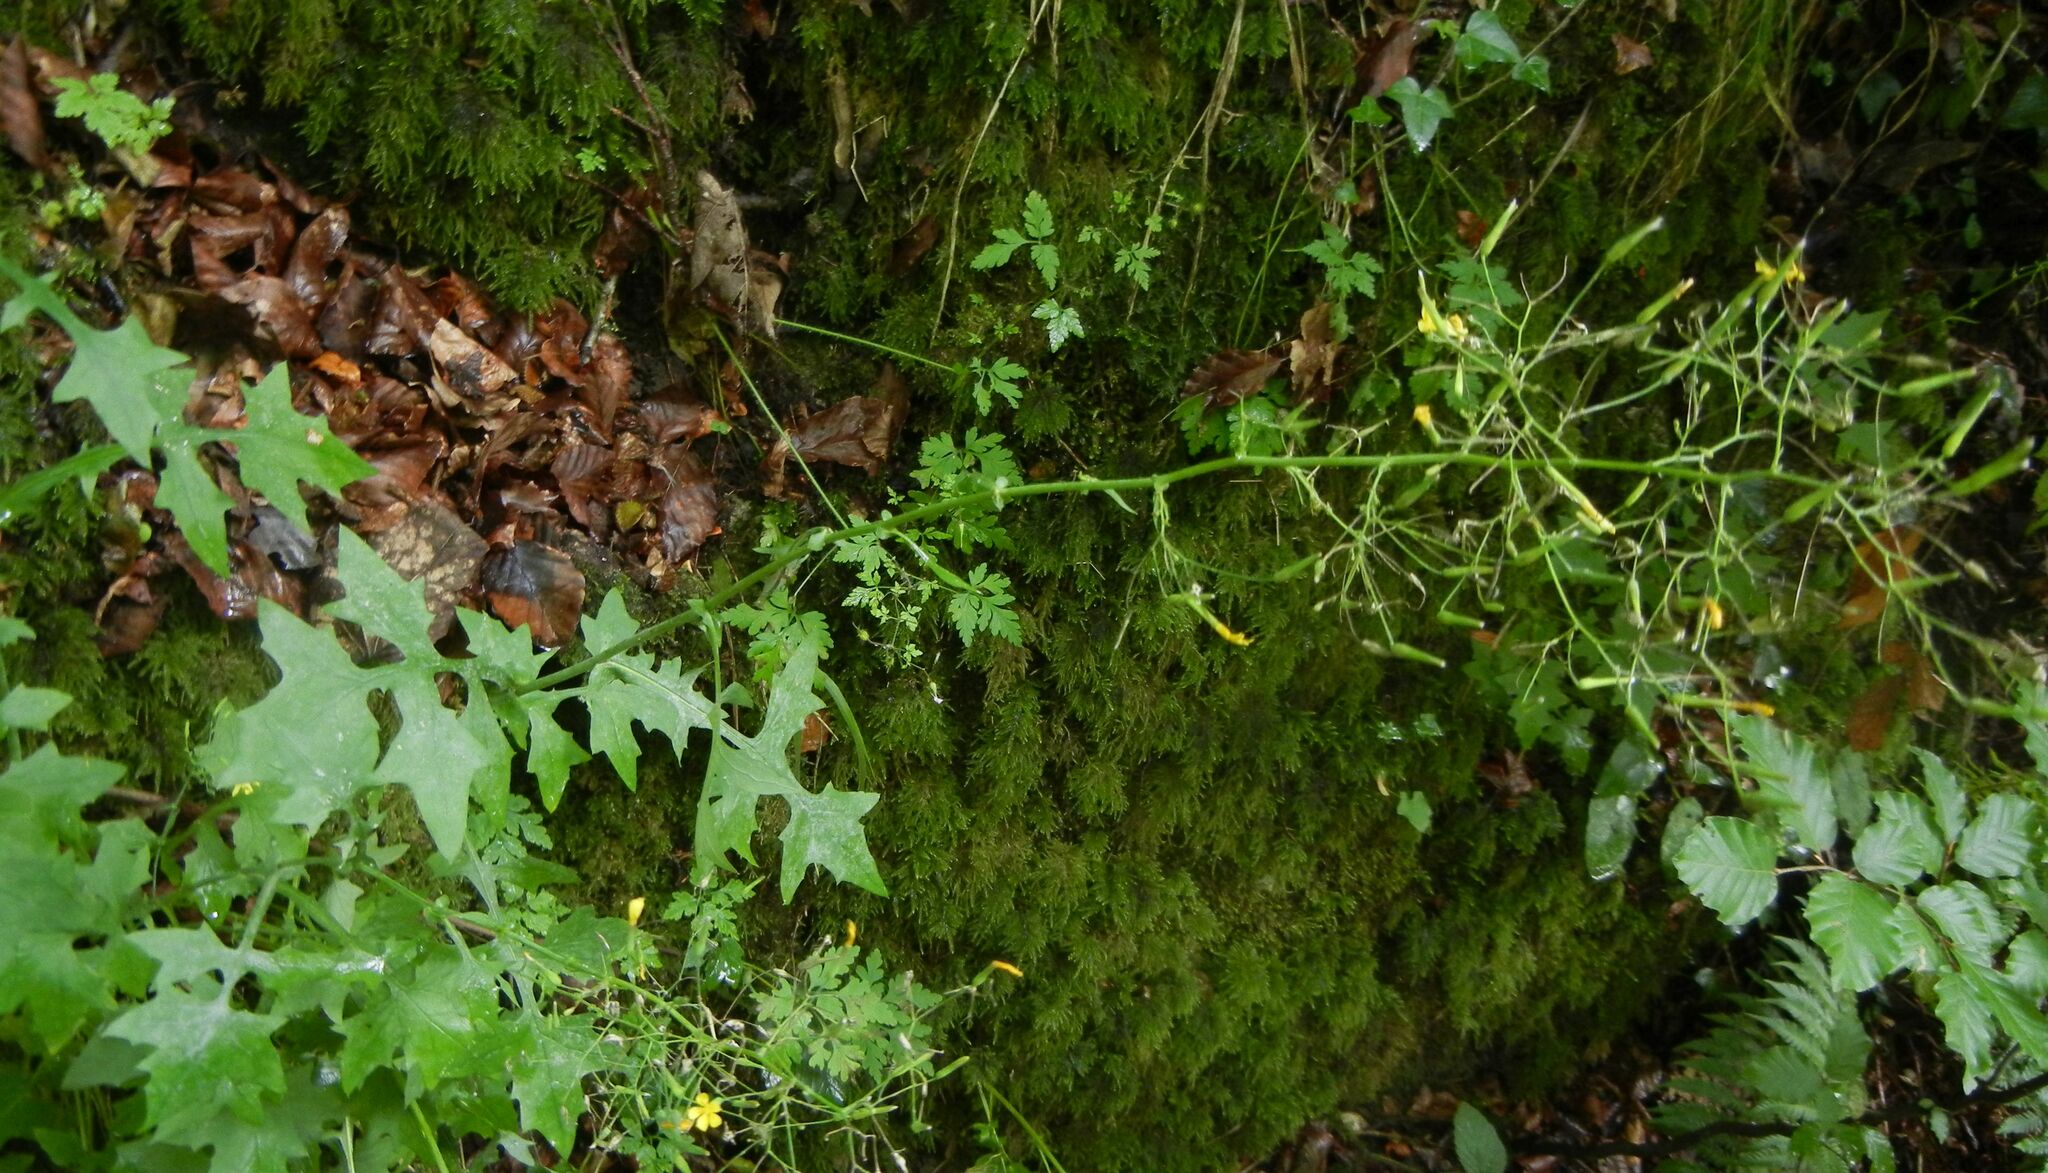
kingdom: Plantae
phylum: Tracheophyta
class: Magnoliopsida
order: Asterales
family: Asteraceae
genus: Mycelis
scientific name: Mycelis muralis
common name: Wall lettuce
